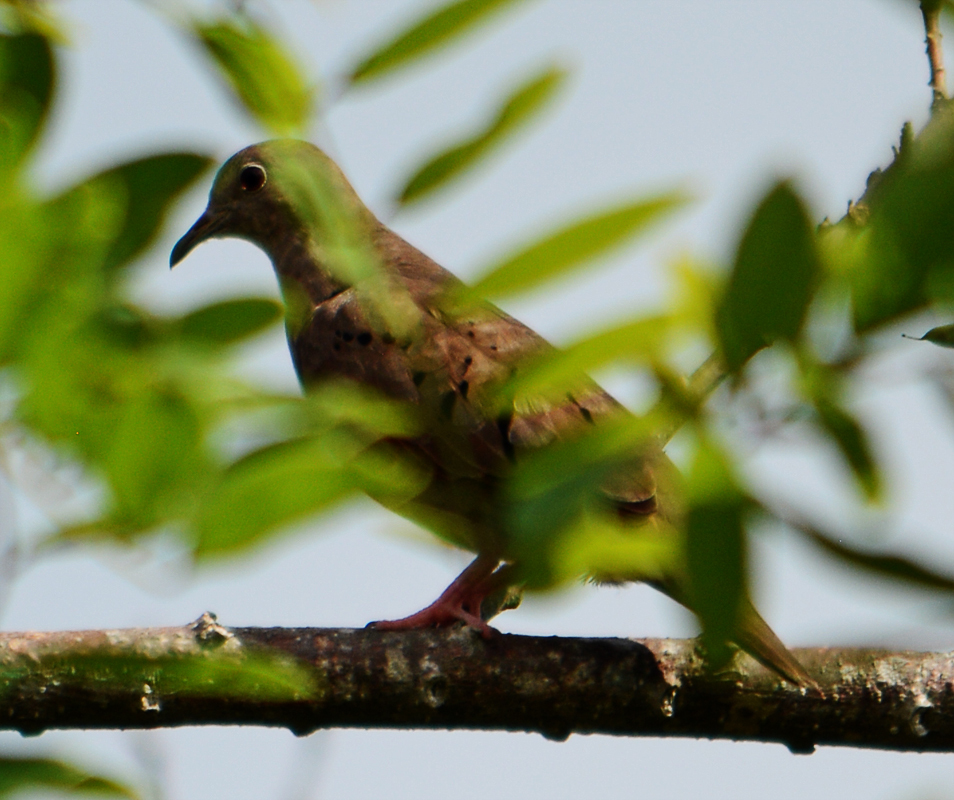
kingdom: Animalia
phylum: Chordata
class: Aves
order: Columbiformes
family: Columbidae
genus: Columbina
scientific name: Columbina talpacoti
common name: Ruddy ground dove
